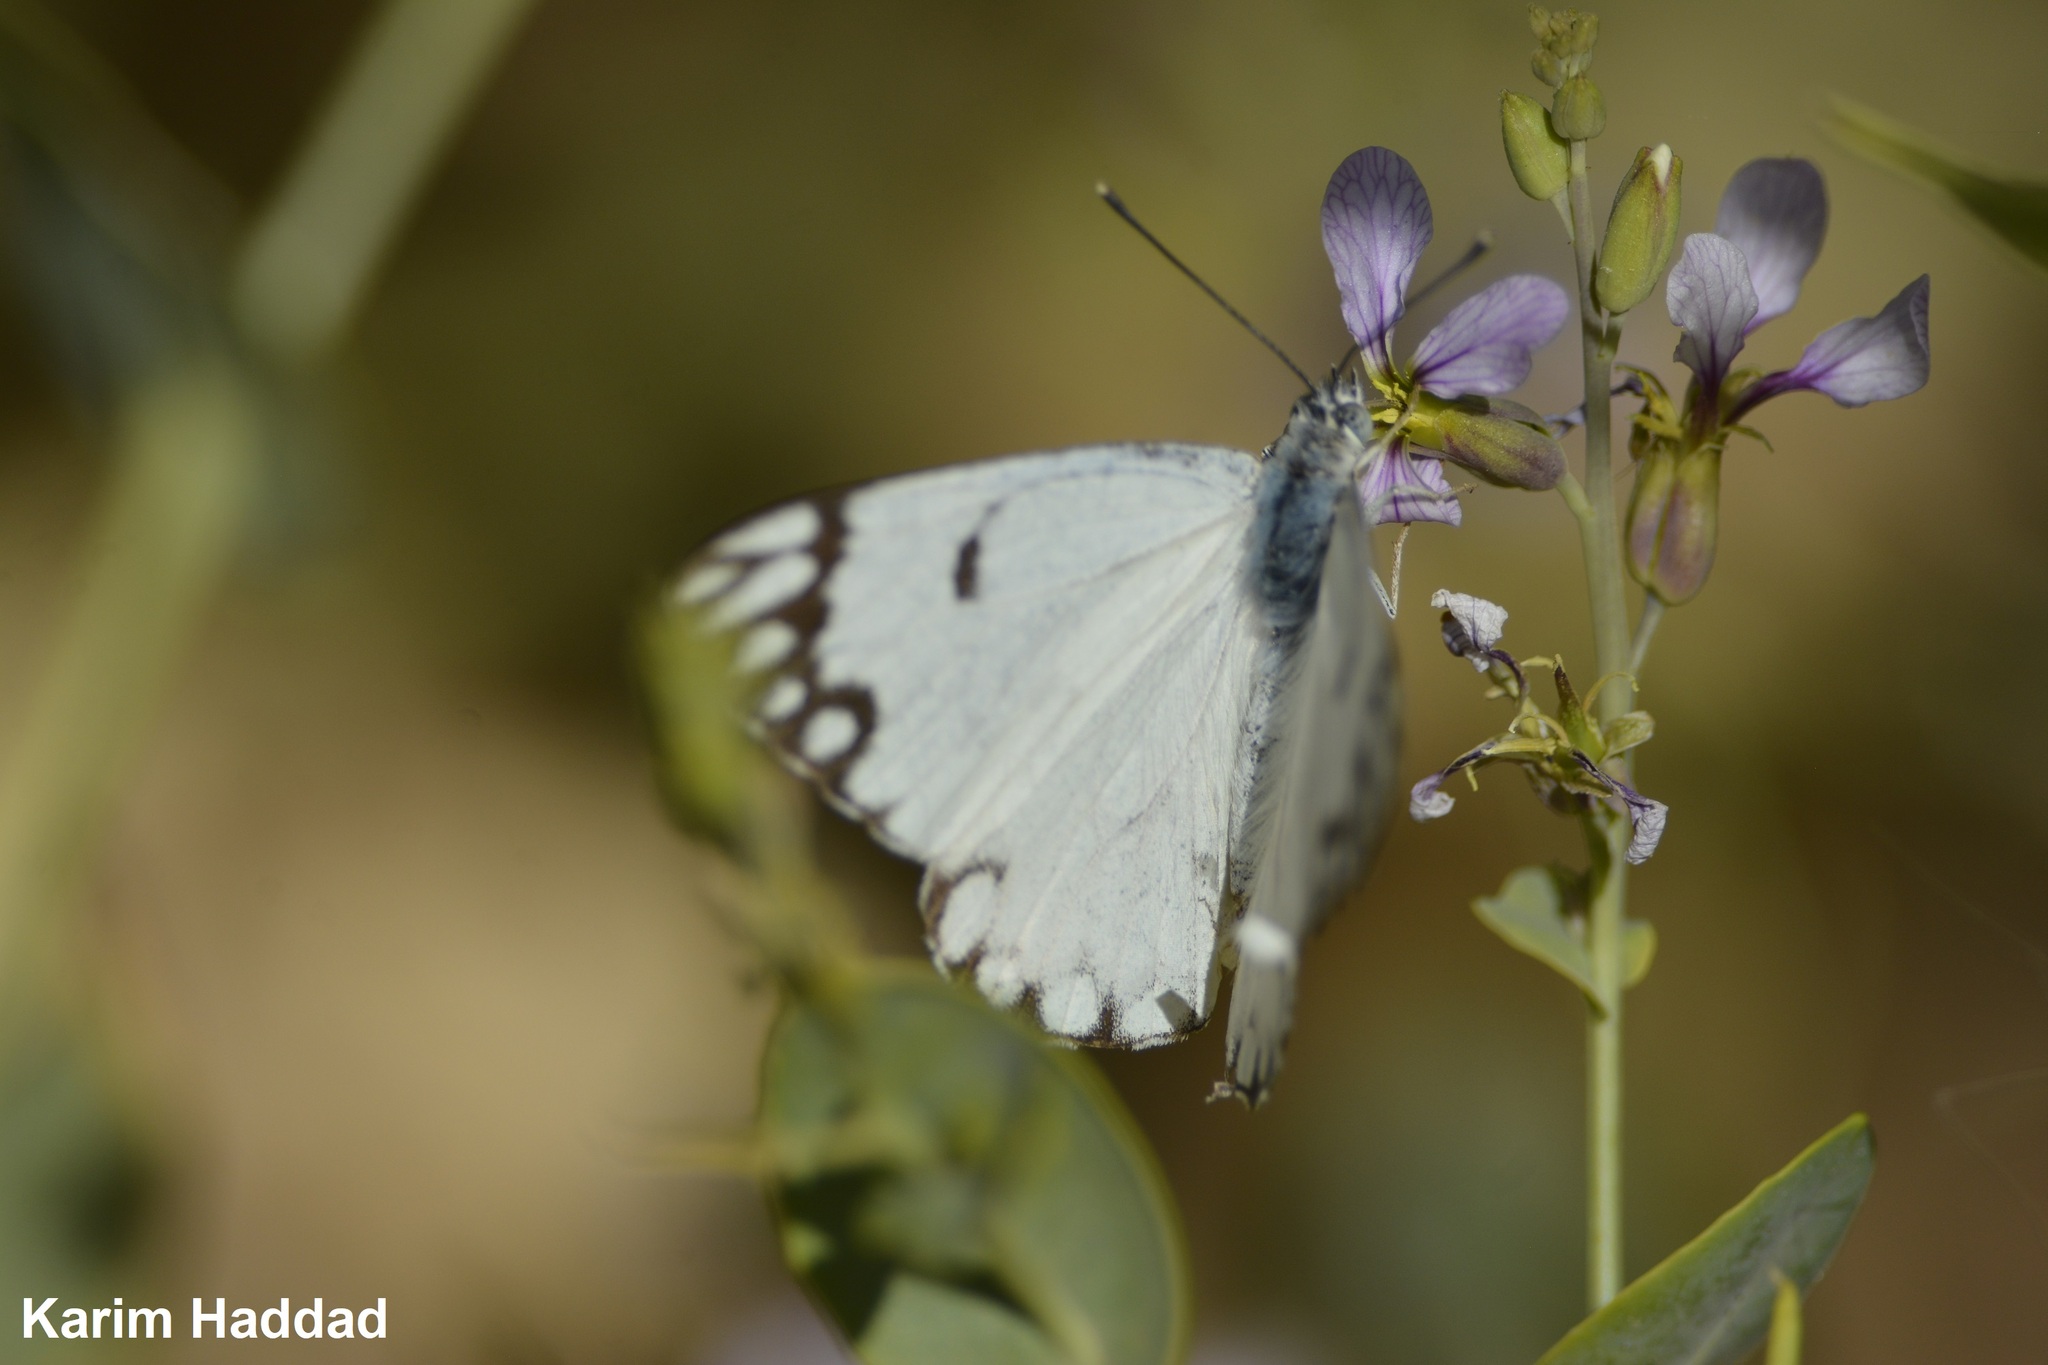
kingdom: Animalia
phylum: Arthropoda
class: Insecta
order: Lepidoptera
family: Pieridae
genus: Belenois
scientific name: Belenois aurota
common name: Brown-veined white
